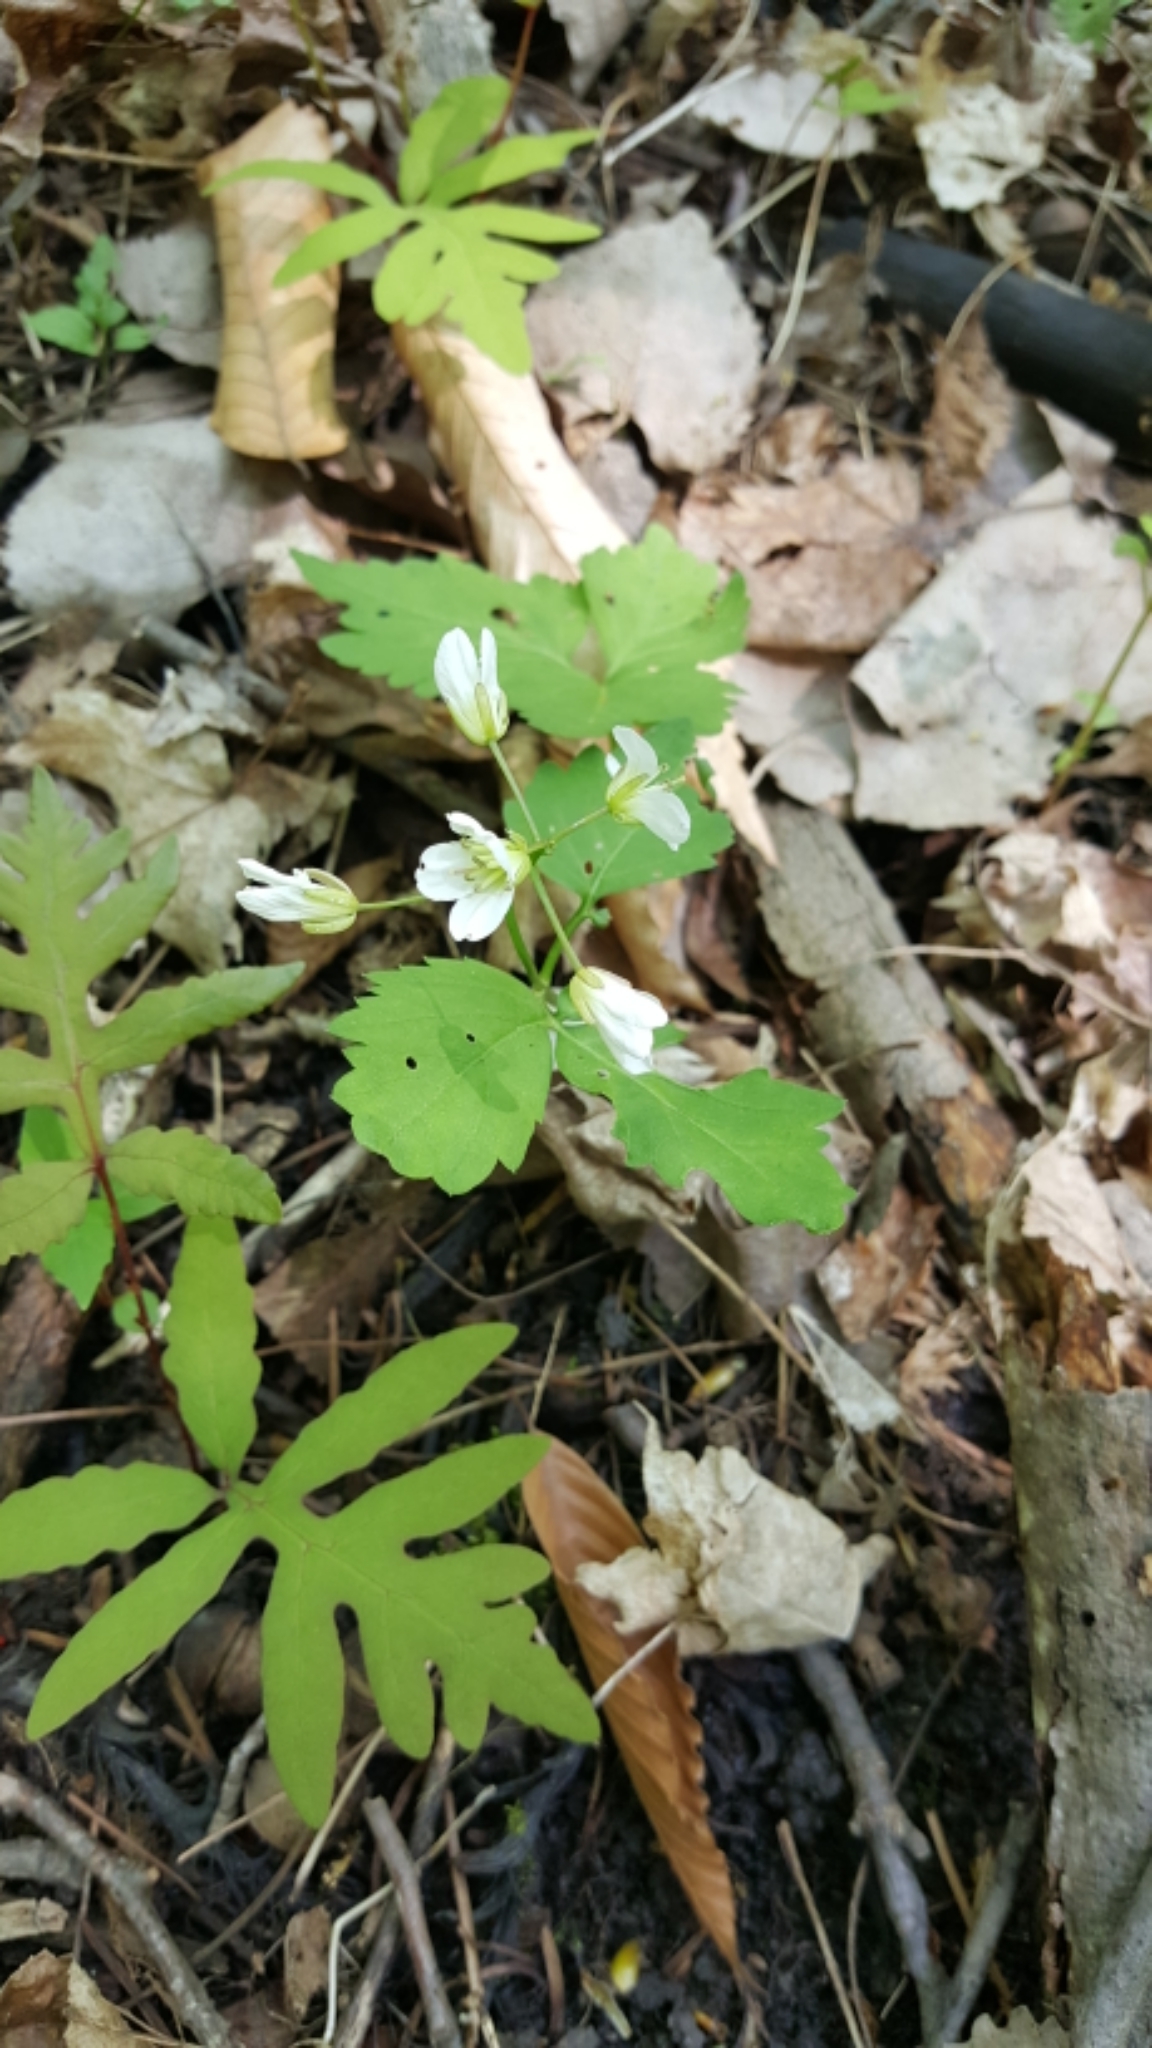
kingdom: Plantae
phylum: Tracheophyta
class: Magnoliopsida
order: Brassicales
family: Brassicaceae
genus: Cardamine
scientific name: Cardamine diphylla
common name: Broad-leaved toothwort
